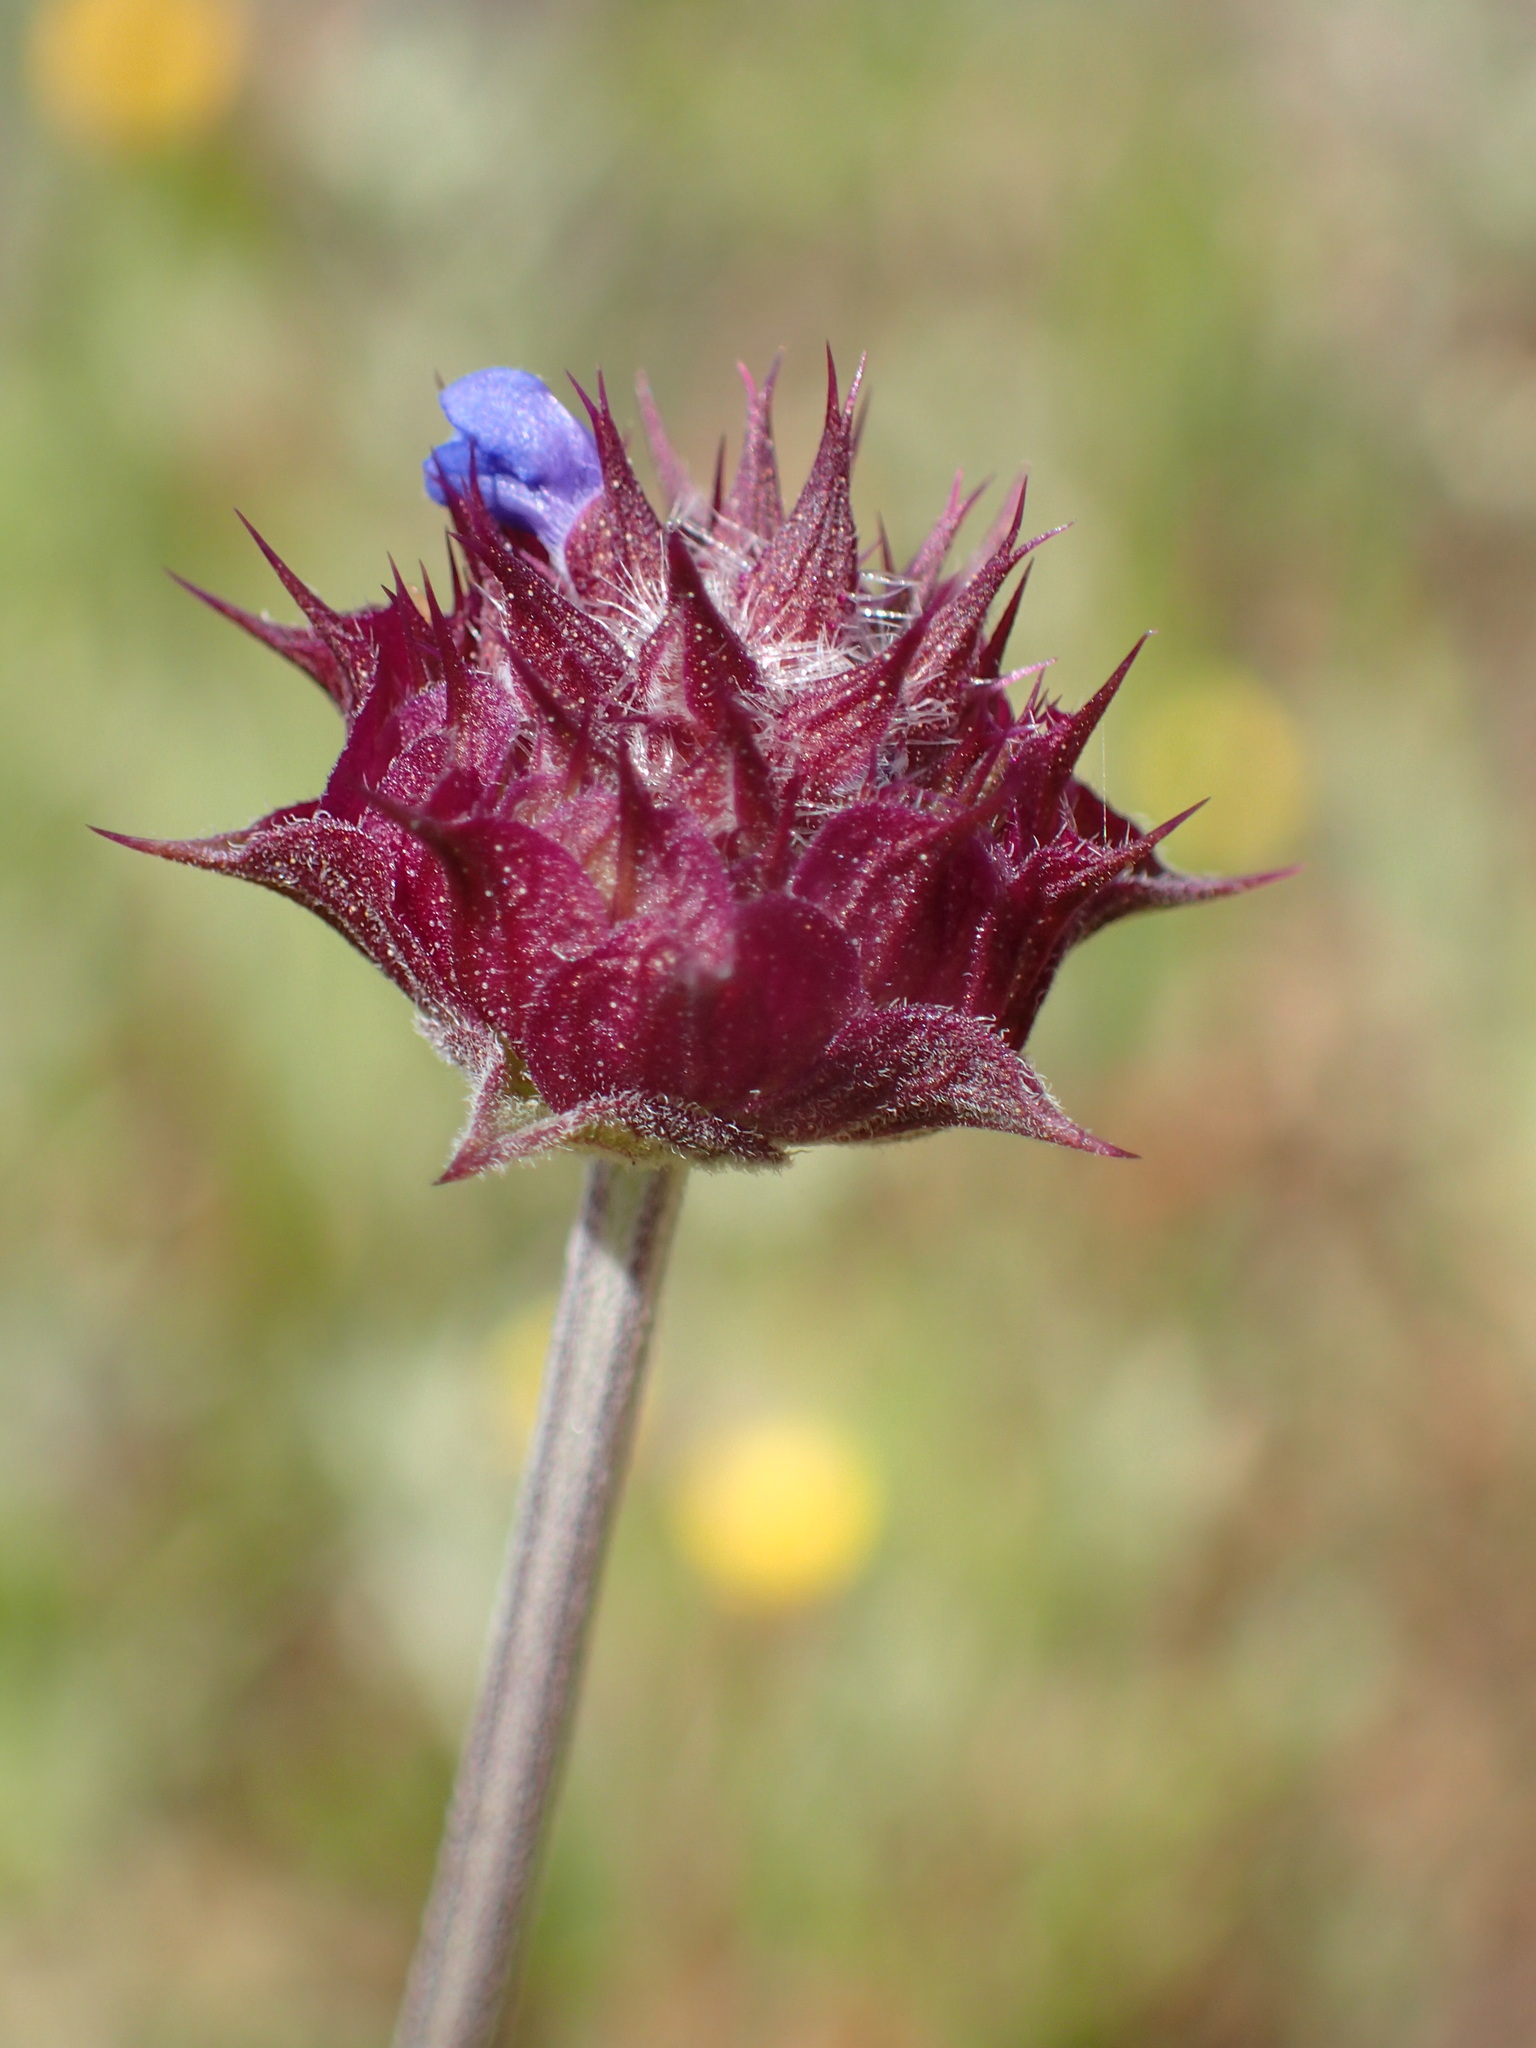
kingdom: Plantae
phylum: Tracheophyta
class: Magnoliopsida
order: Lamiales
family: Lamiaceae
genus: Salvia
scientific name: Salvia columbariae
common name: Chia
